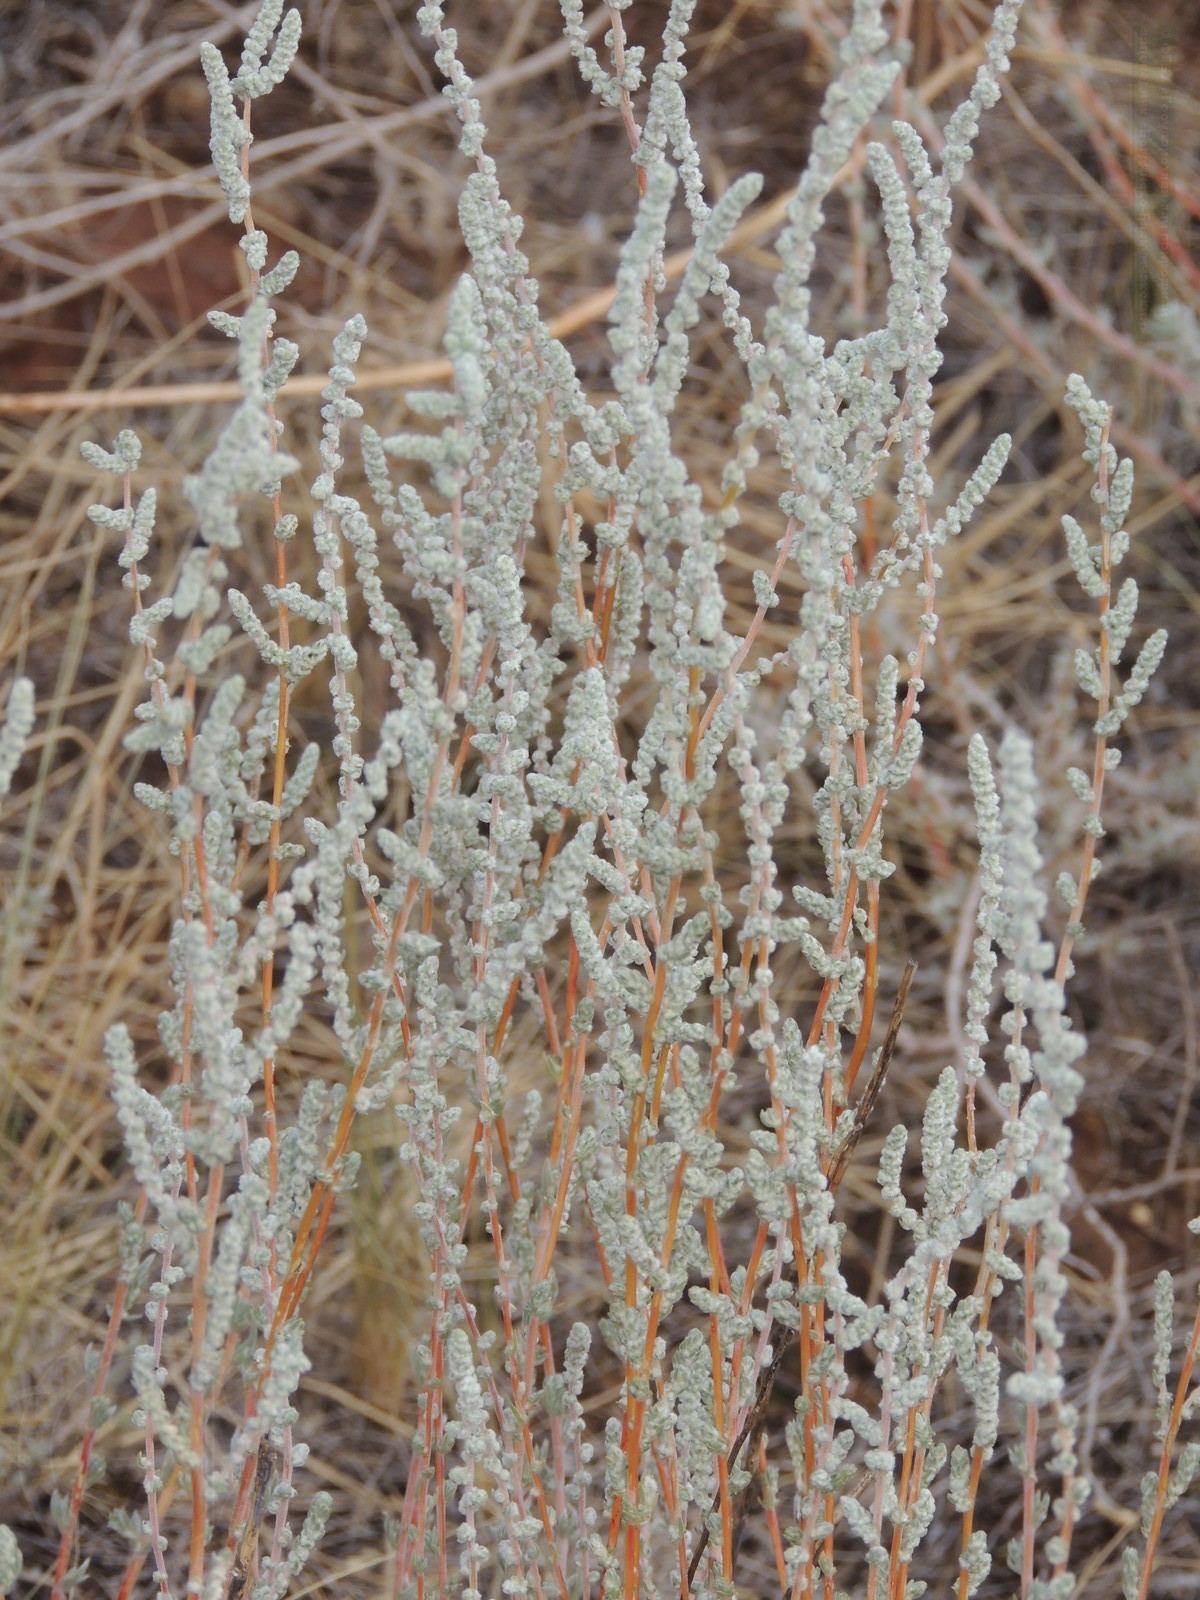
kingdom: Plantae
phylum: Tracheophyta
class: Magnoliopsida
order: Caryophyllales
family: Amaranthaceae
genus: Bassia
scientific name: Bassia prostrata
